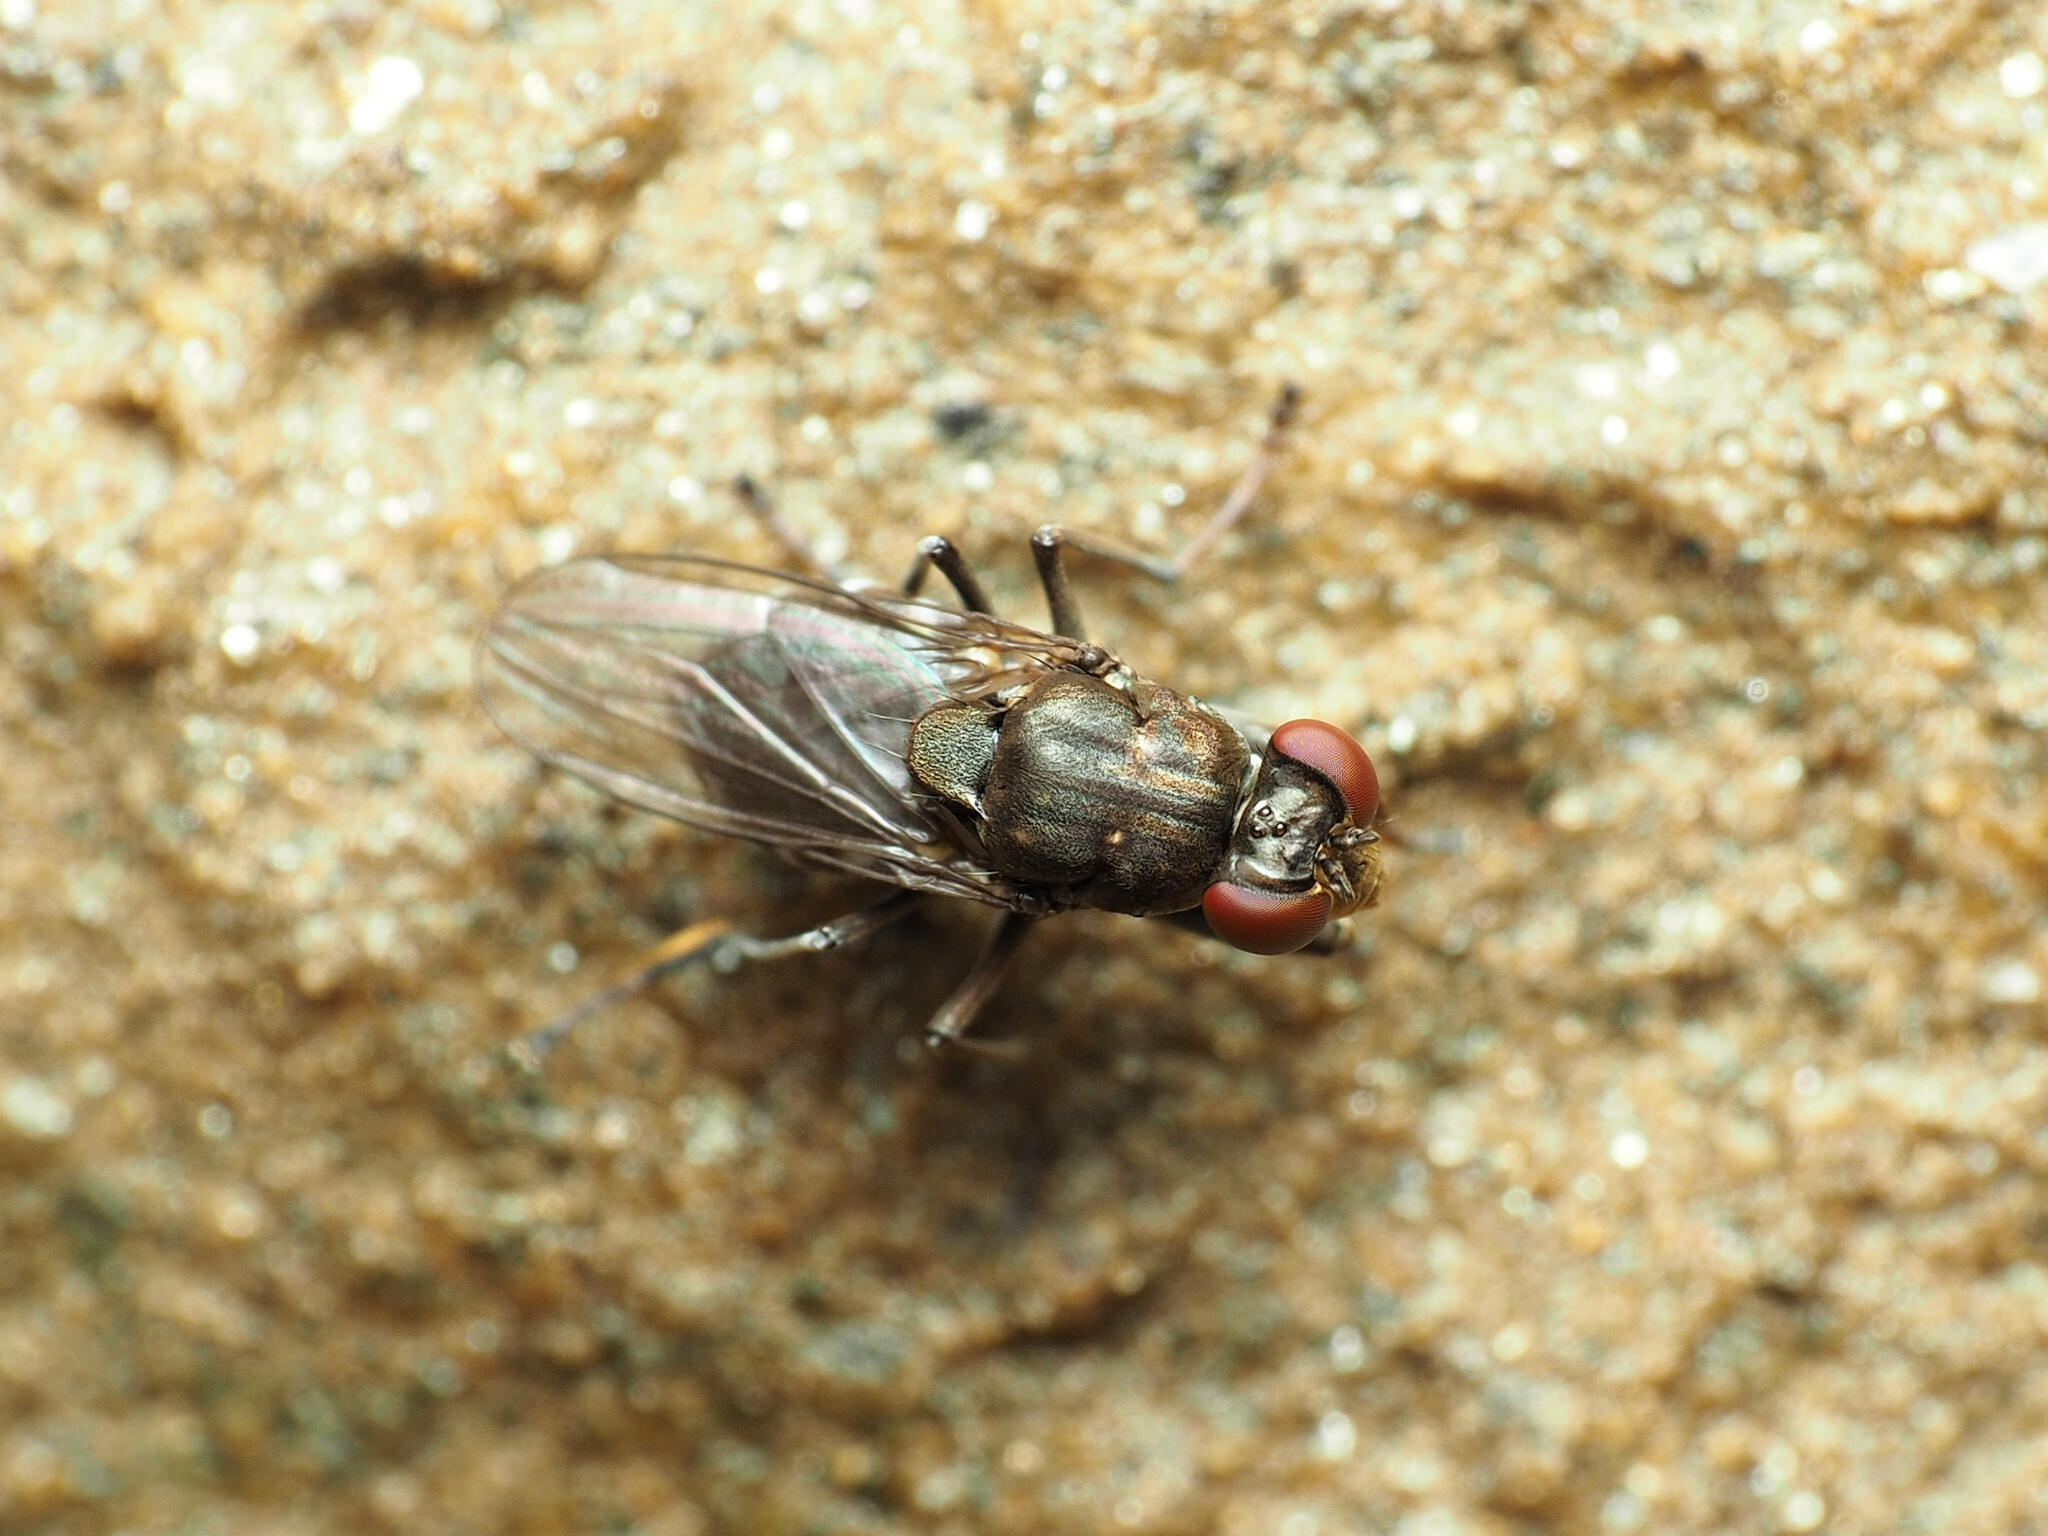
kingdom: Animalia
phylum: Arthropoda
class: Insecta
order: Diptera
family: Ephydridae
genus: Ochthera
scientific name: Ochthera tuberculata
